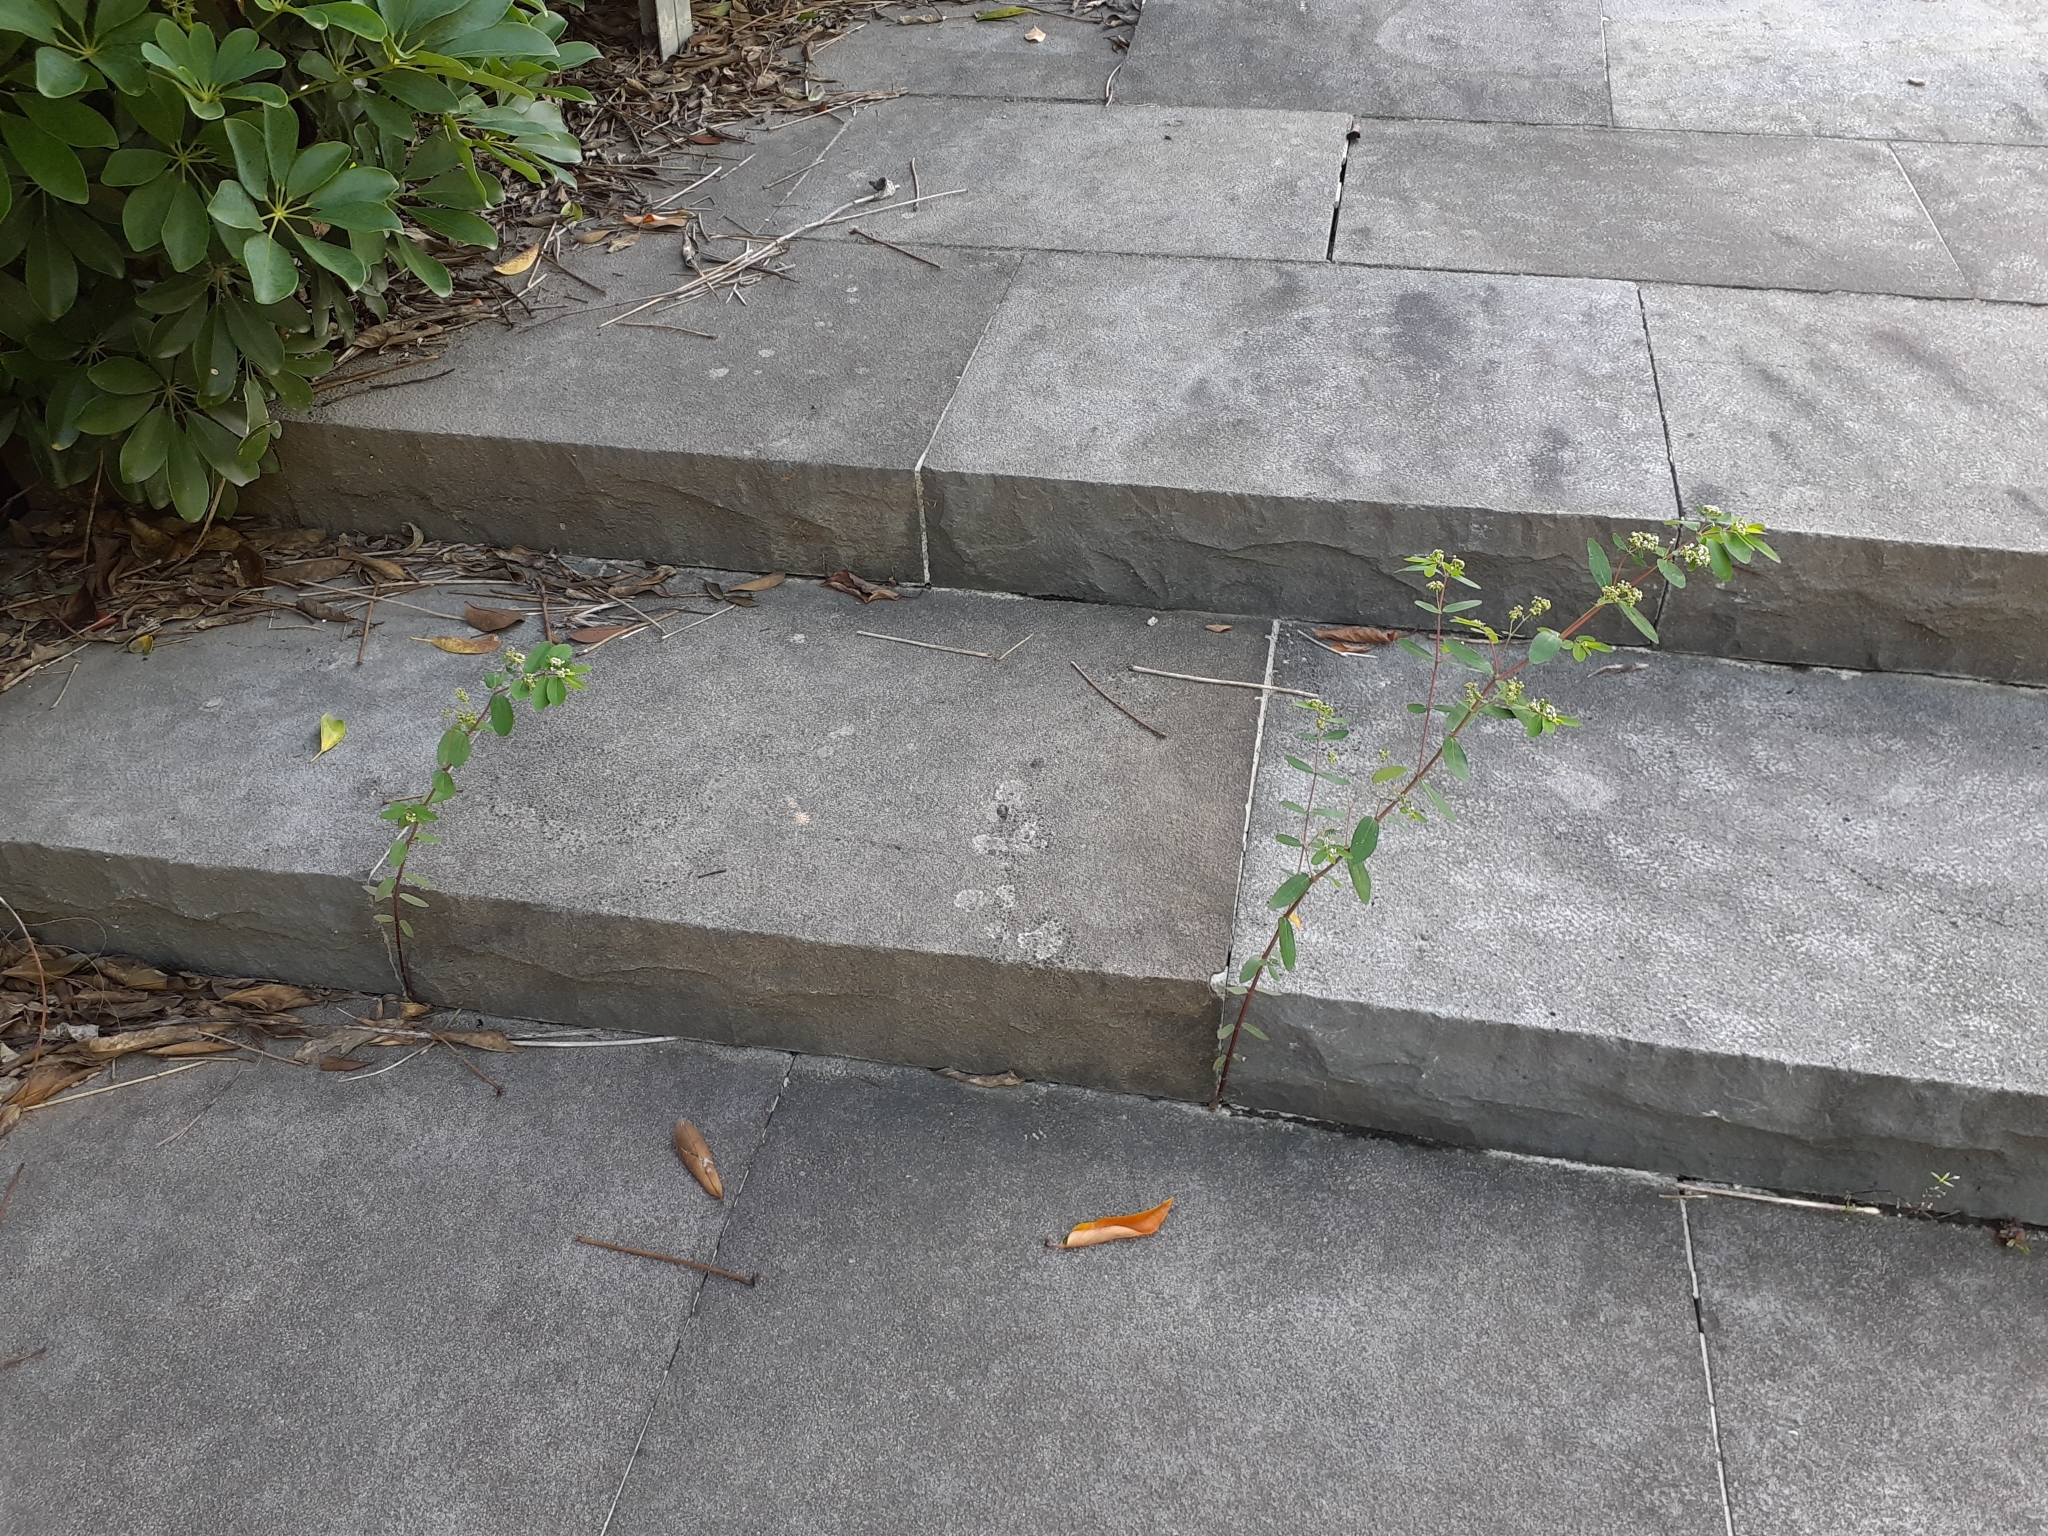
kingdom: Plantae
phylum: Tracheophyta
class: Magnoliopsida
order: Malpighiales
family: Euphorbiaceae
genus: Euphorbia
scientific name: Euphorbia hypericifolia
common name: Graceful sandmat
